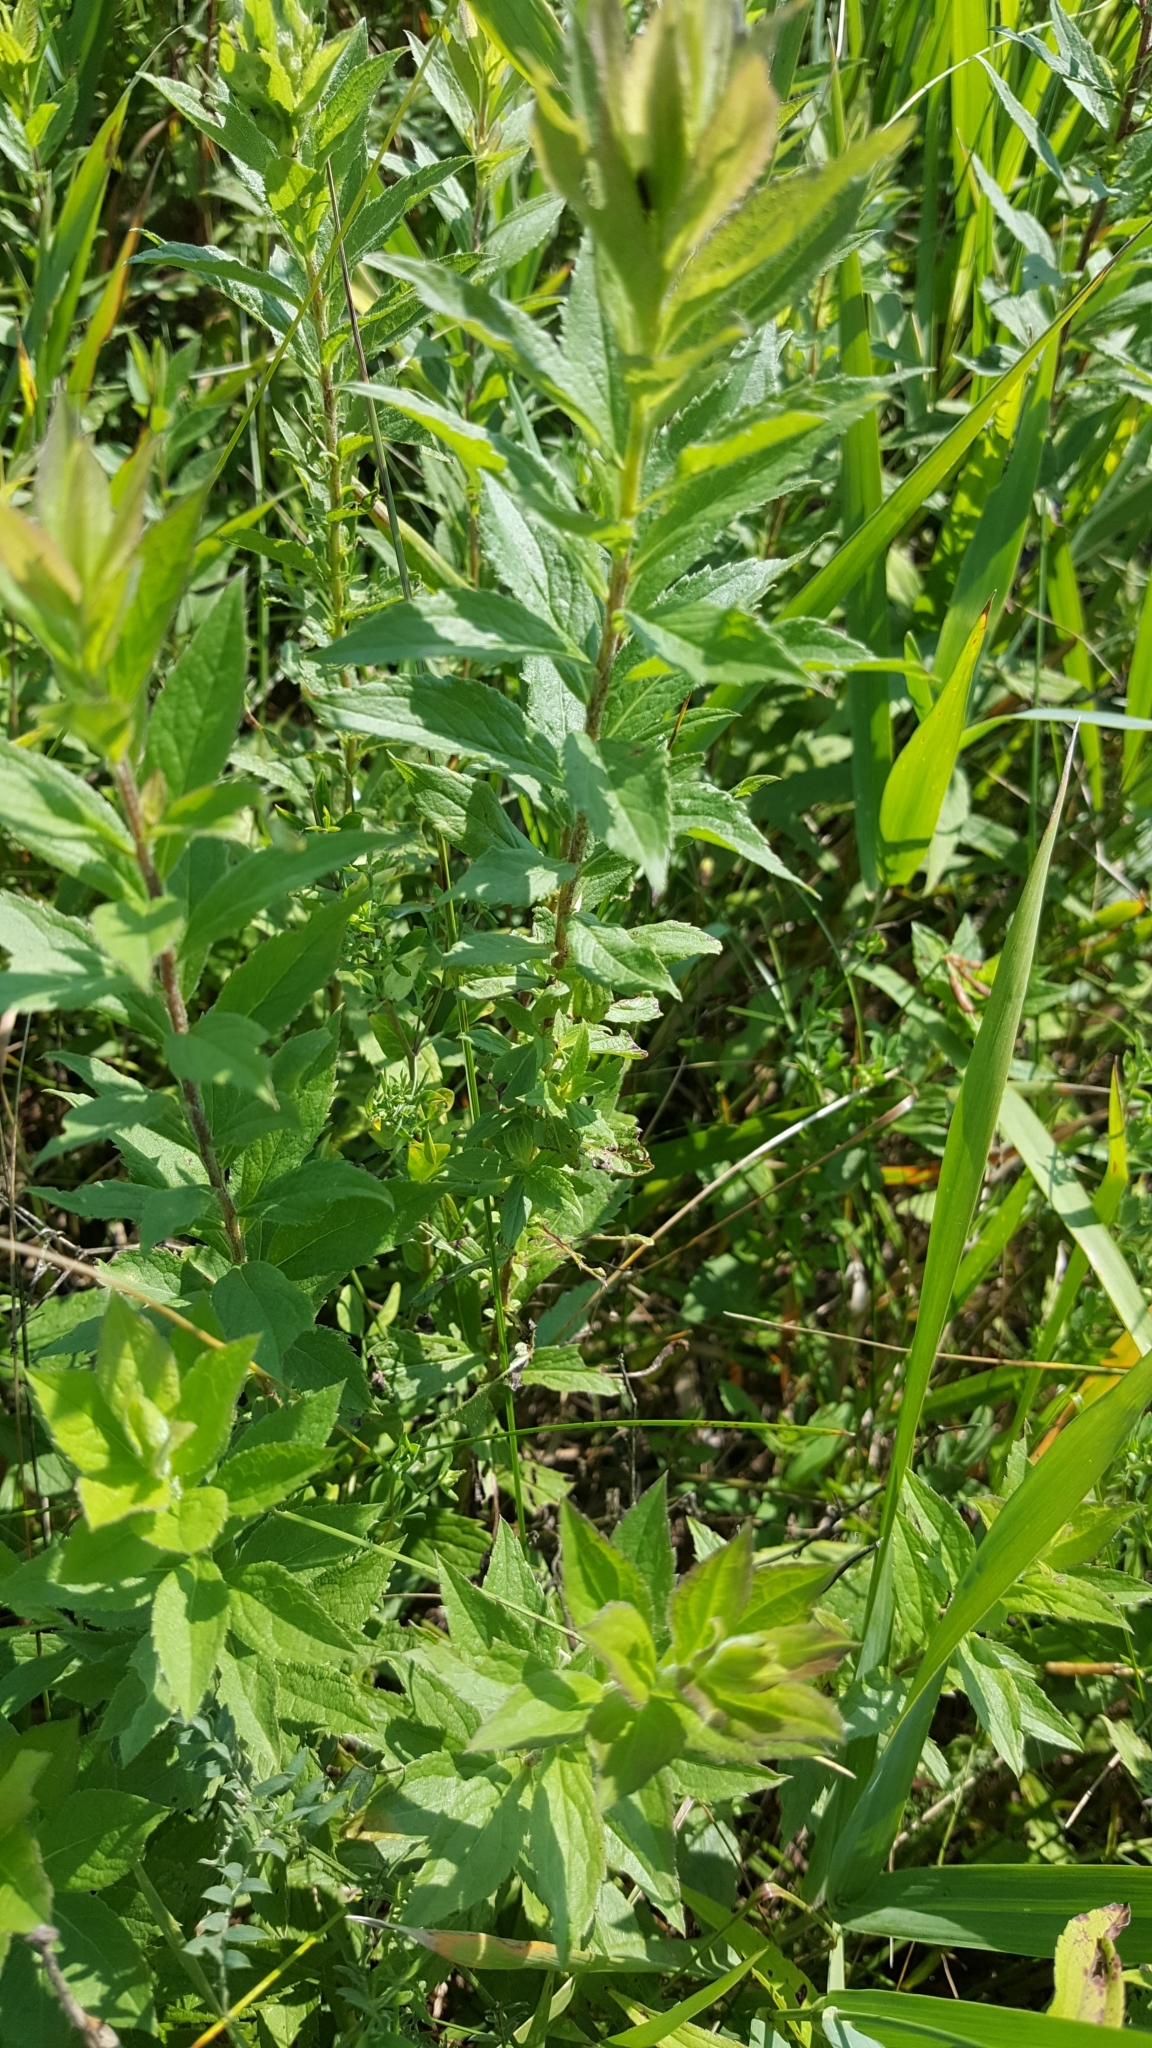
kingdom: Plantae
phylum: Tracheophyta
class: Magnoliopsida
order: Asterales
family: Asteraceae
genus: Solidago
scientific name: Solidago rugosa
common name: Rough-stemmed goldenrod
